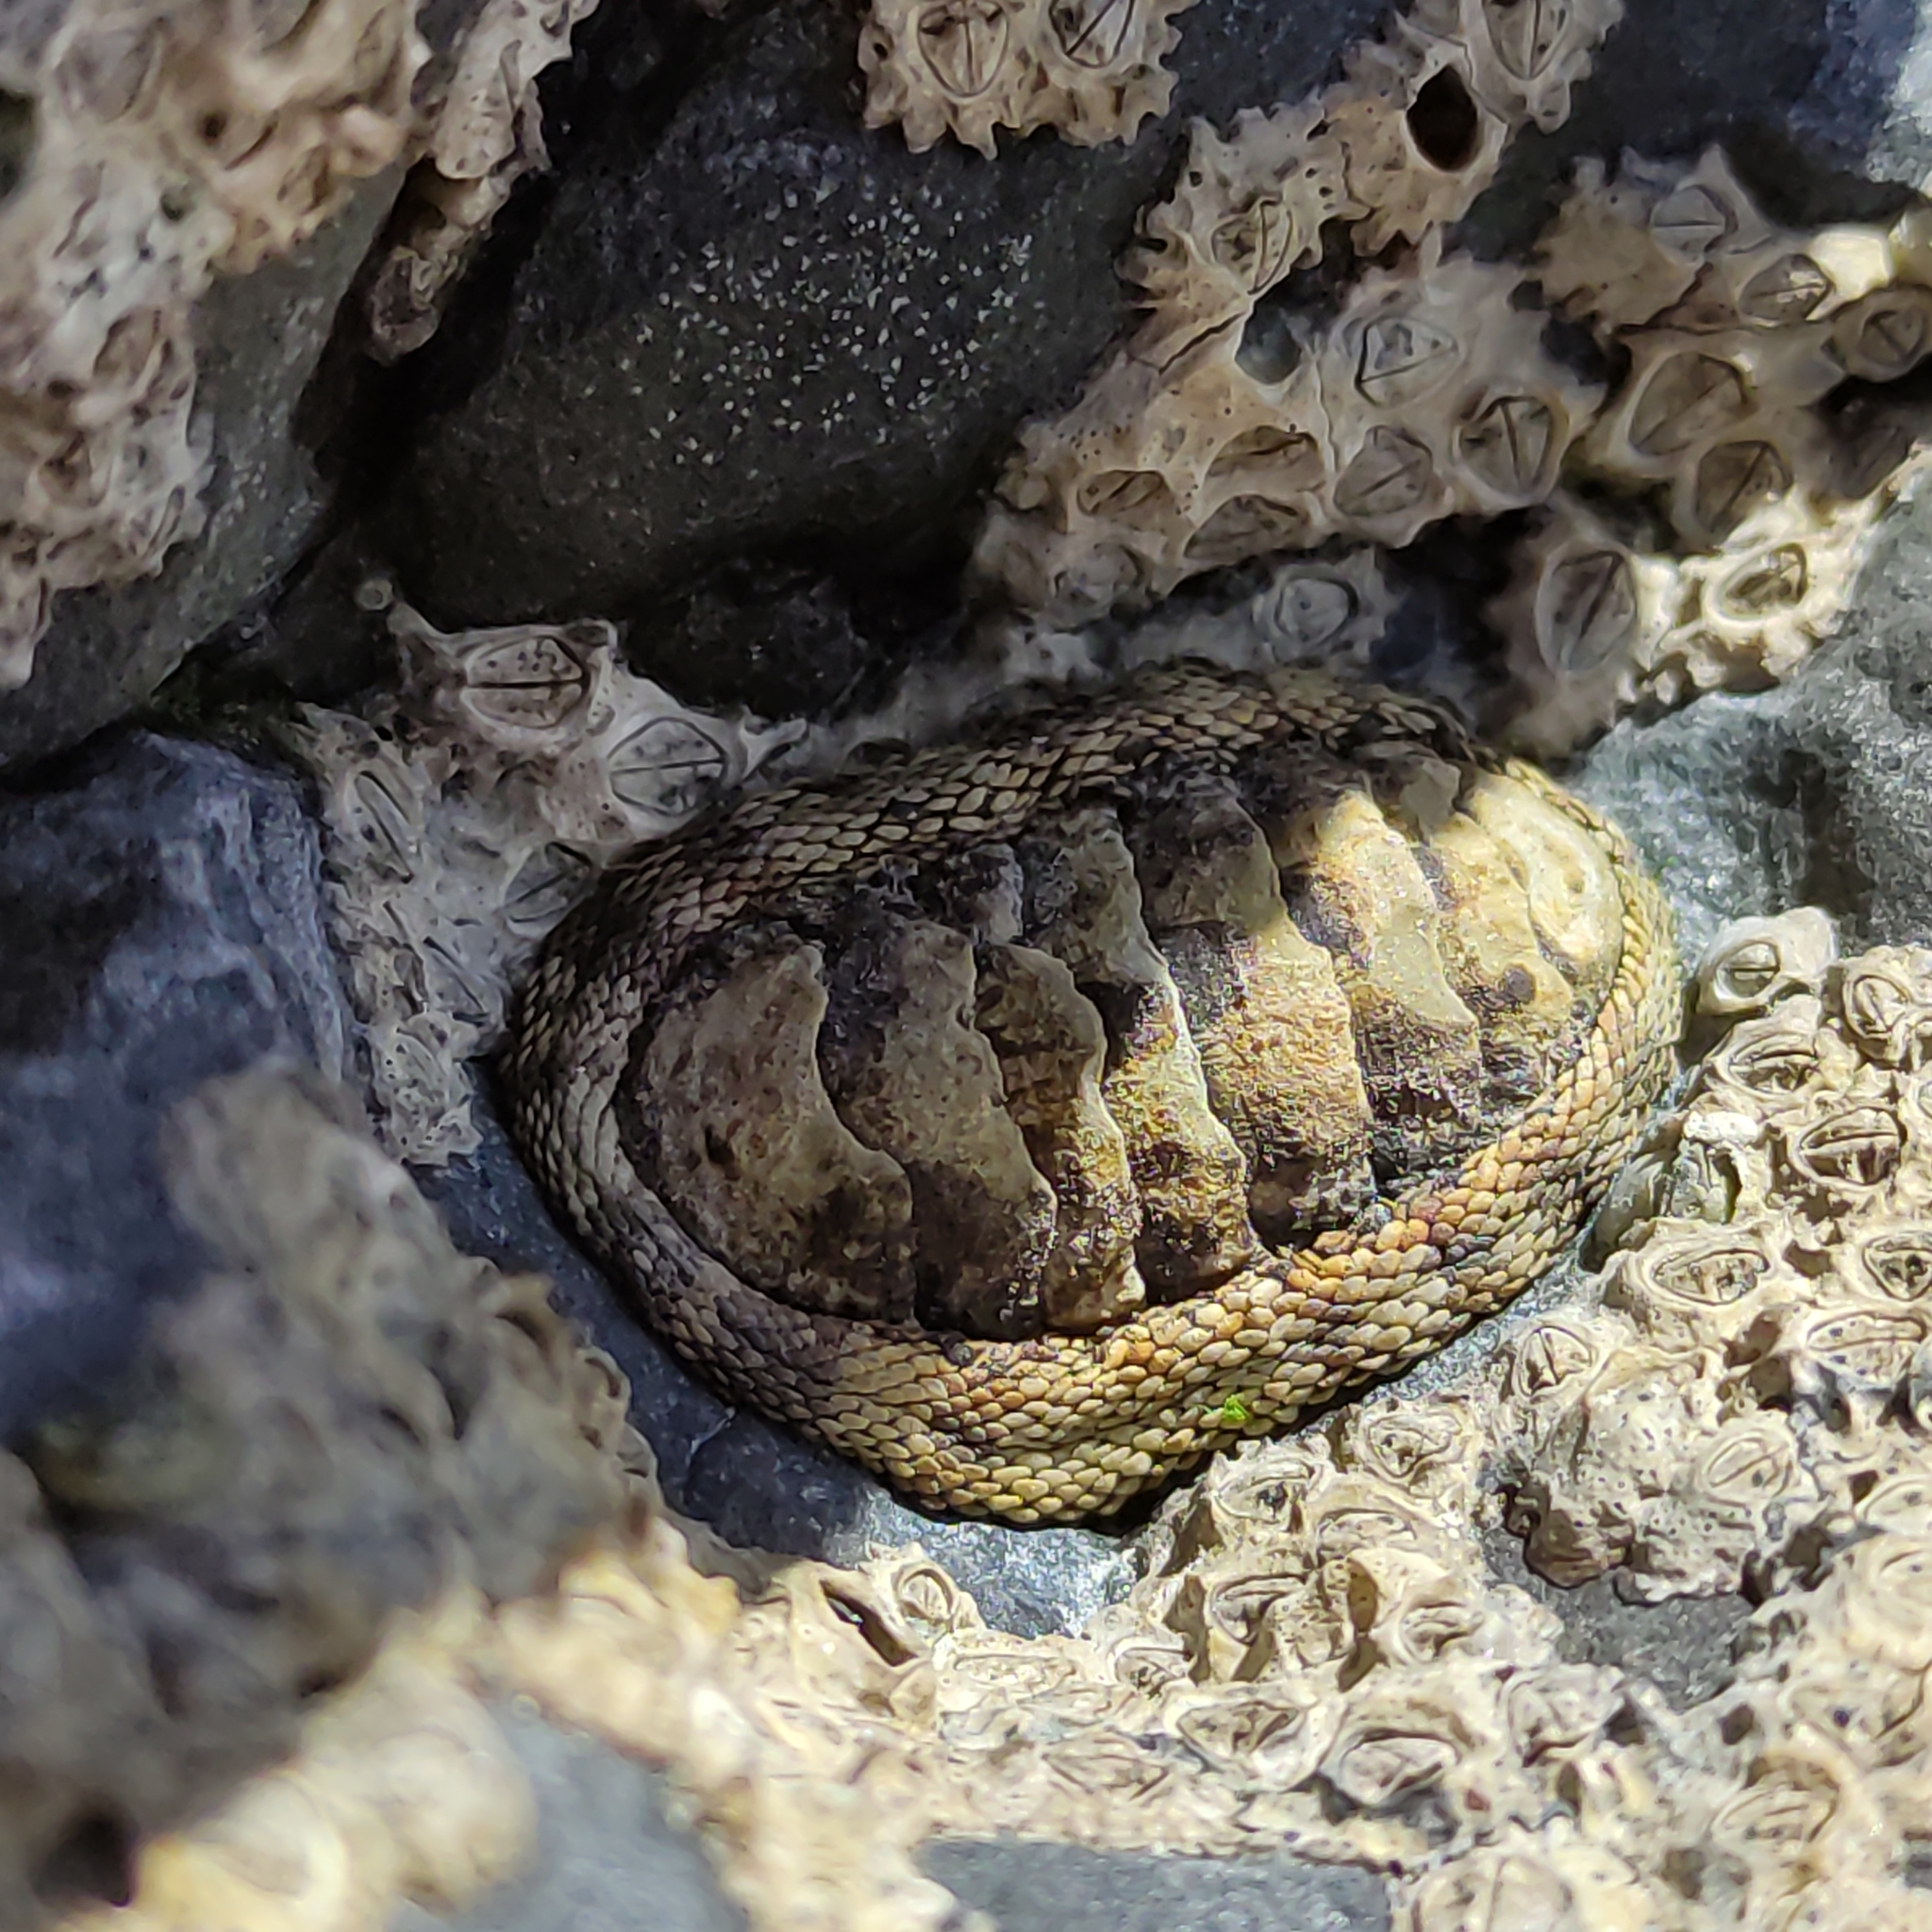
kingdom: Animalia
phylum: Mollusca
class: Polyplacophora
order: Chitonida
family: Chitonidae
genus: Sypharochiton
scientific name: Sypharochiton pelliserpentis
